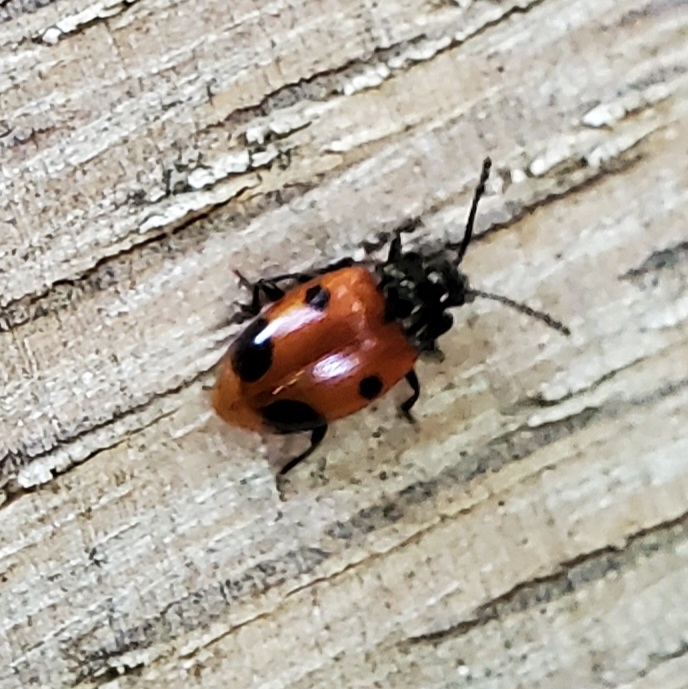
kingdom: Animalia
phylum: Arthropoda
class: Insecta
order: Coleoptera
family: Endomychidae
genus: Endomychus
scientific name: Endomychus biguttatus
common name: Handsome fungus beetle
